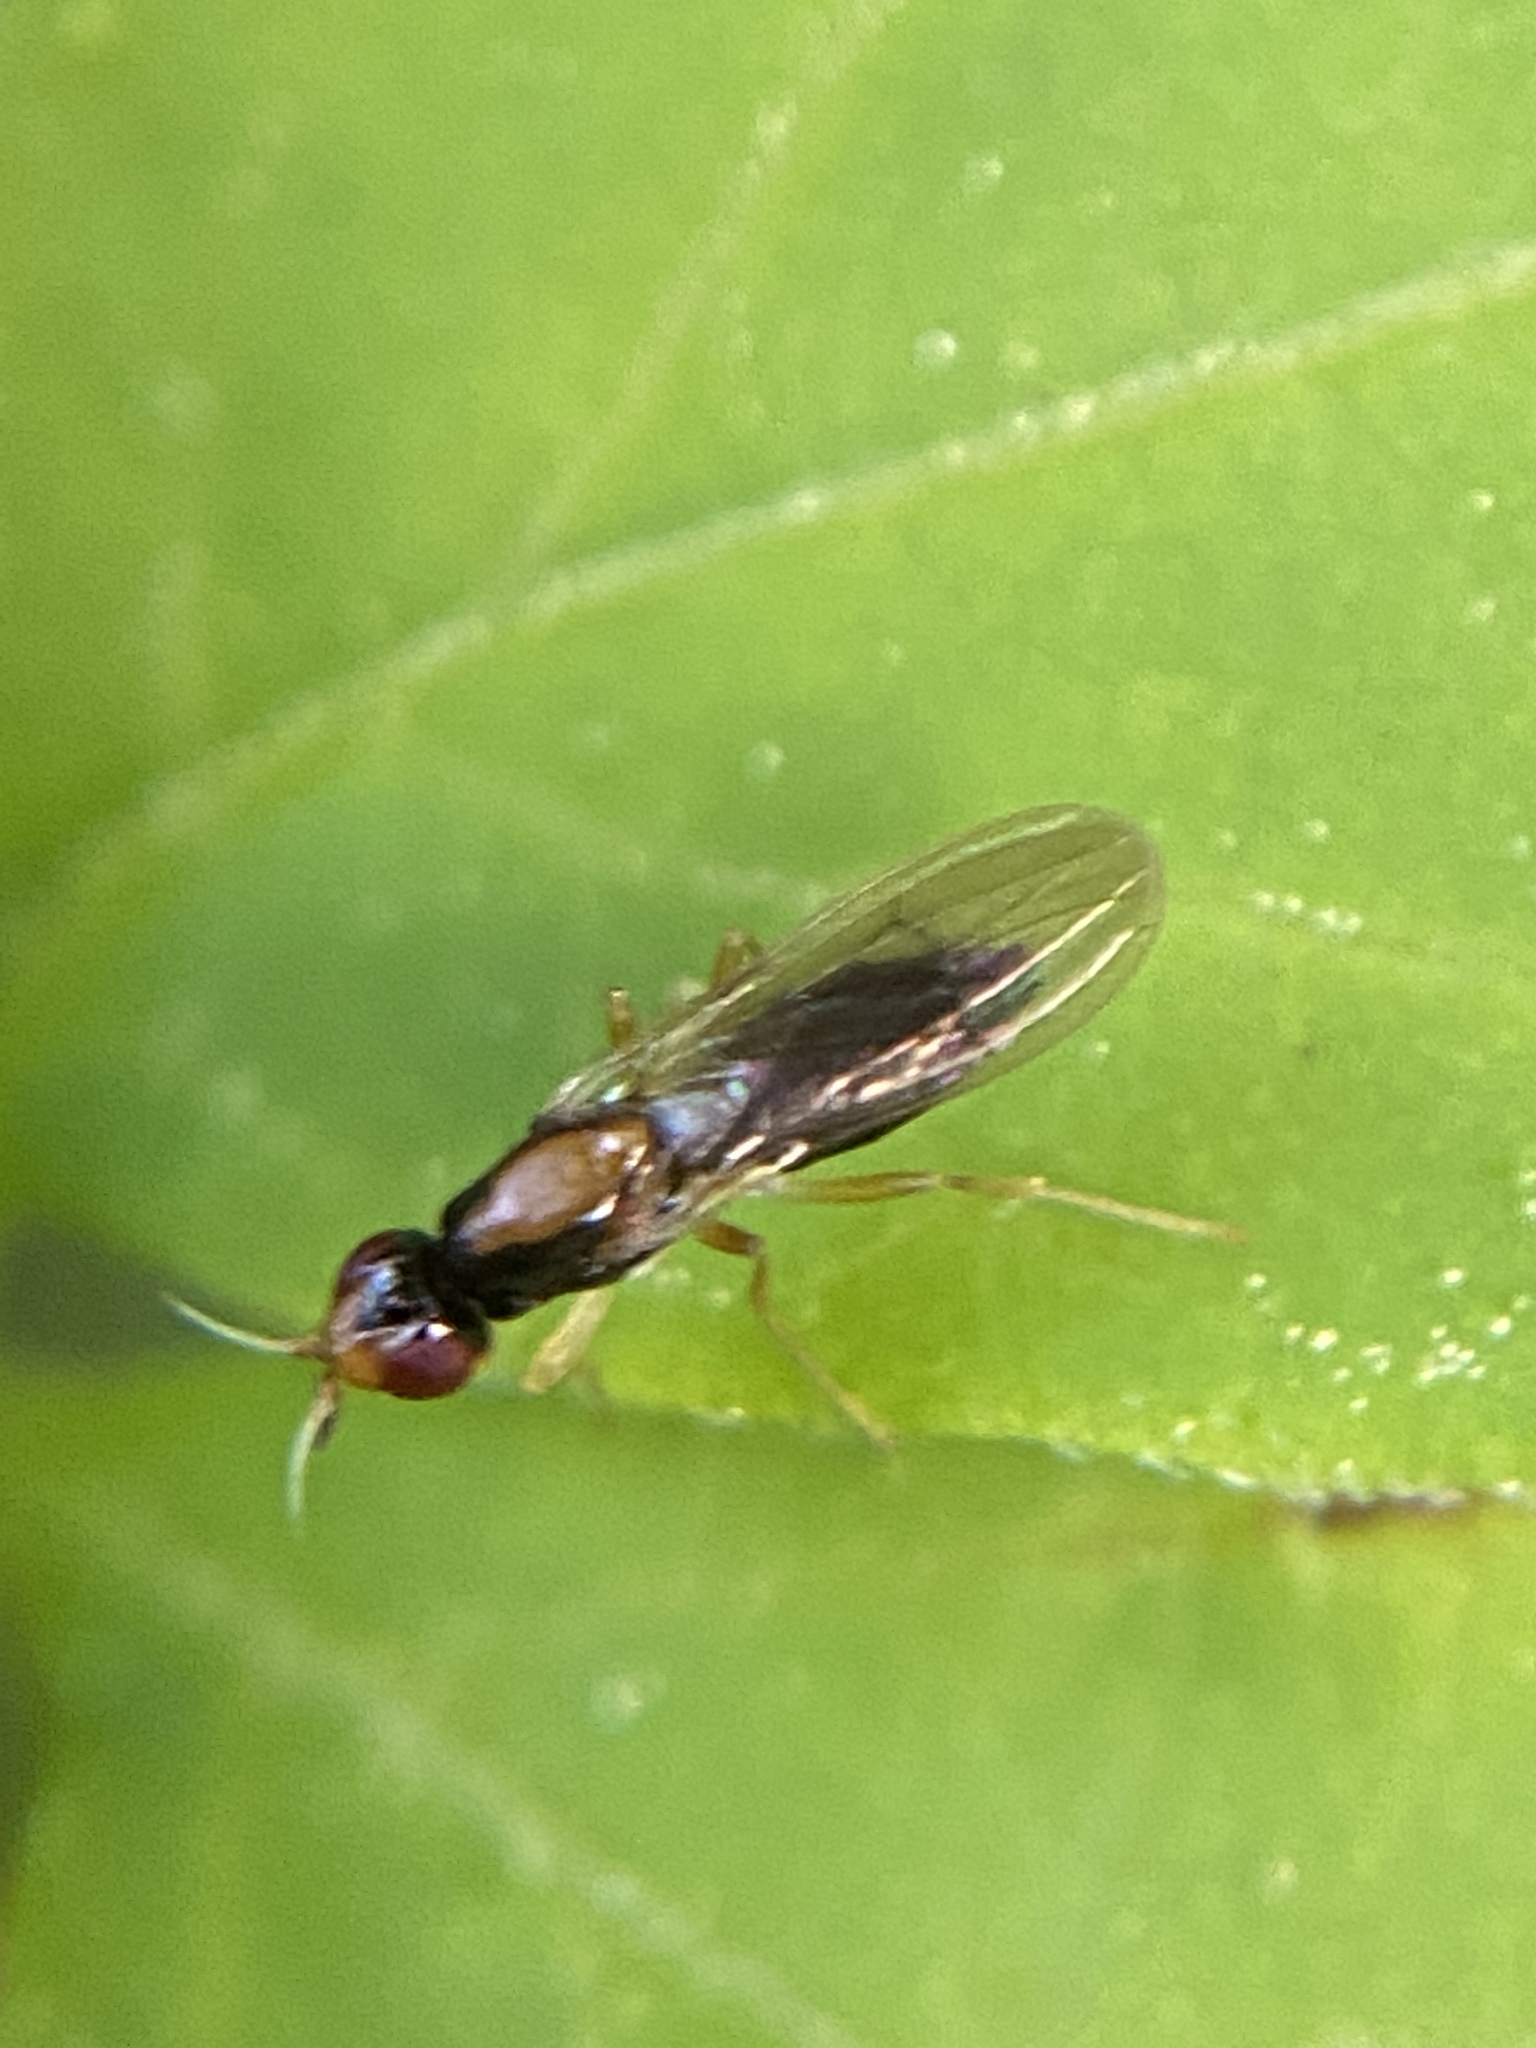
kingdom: Animalia
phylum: Arthropoda
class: Insecta
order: Diptera
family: Psilidae
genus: Psila
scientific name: Psila collaris
